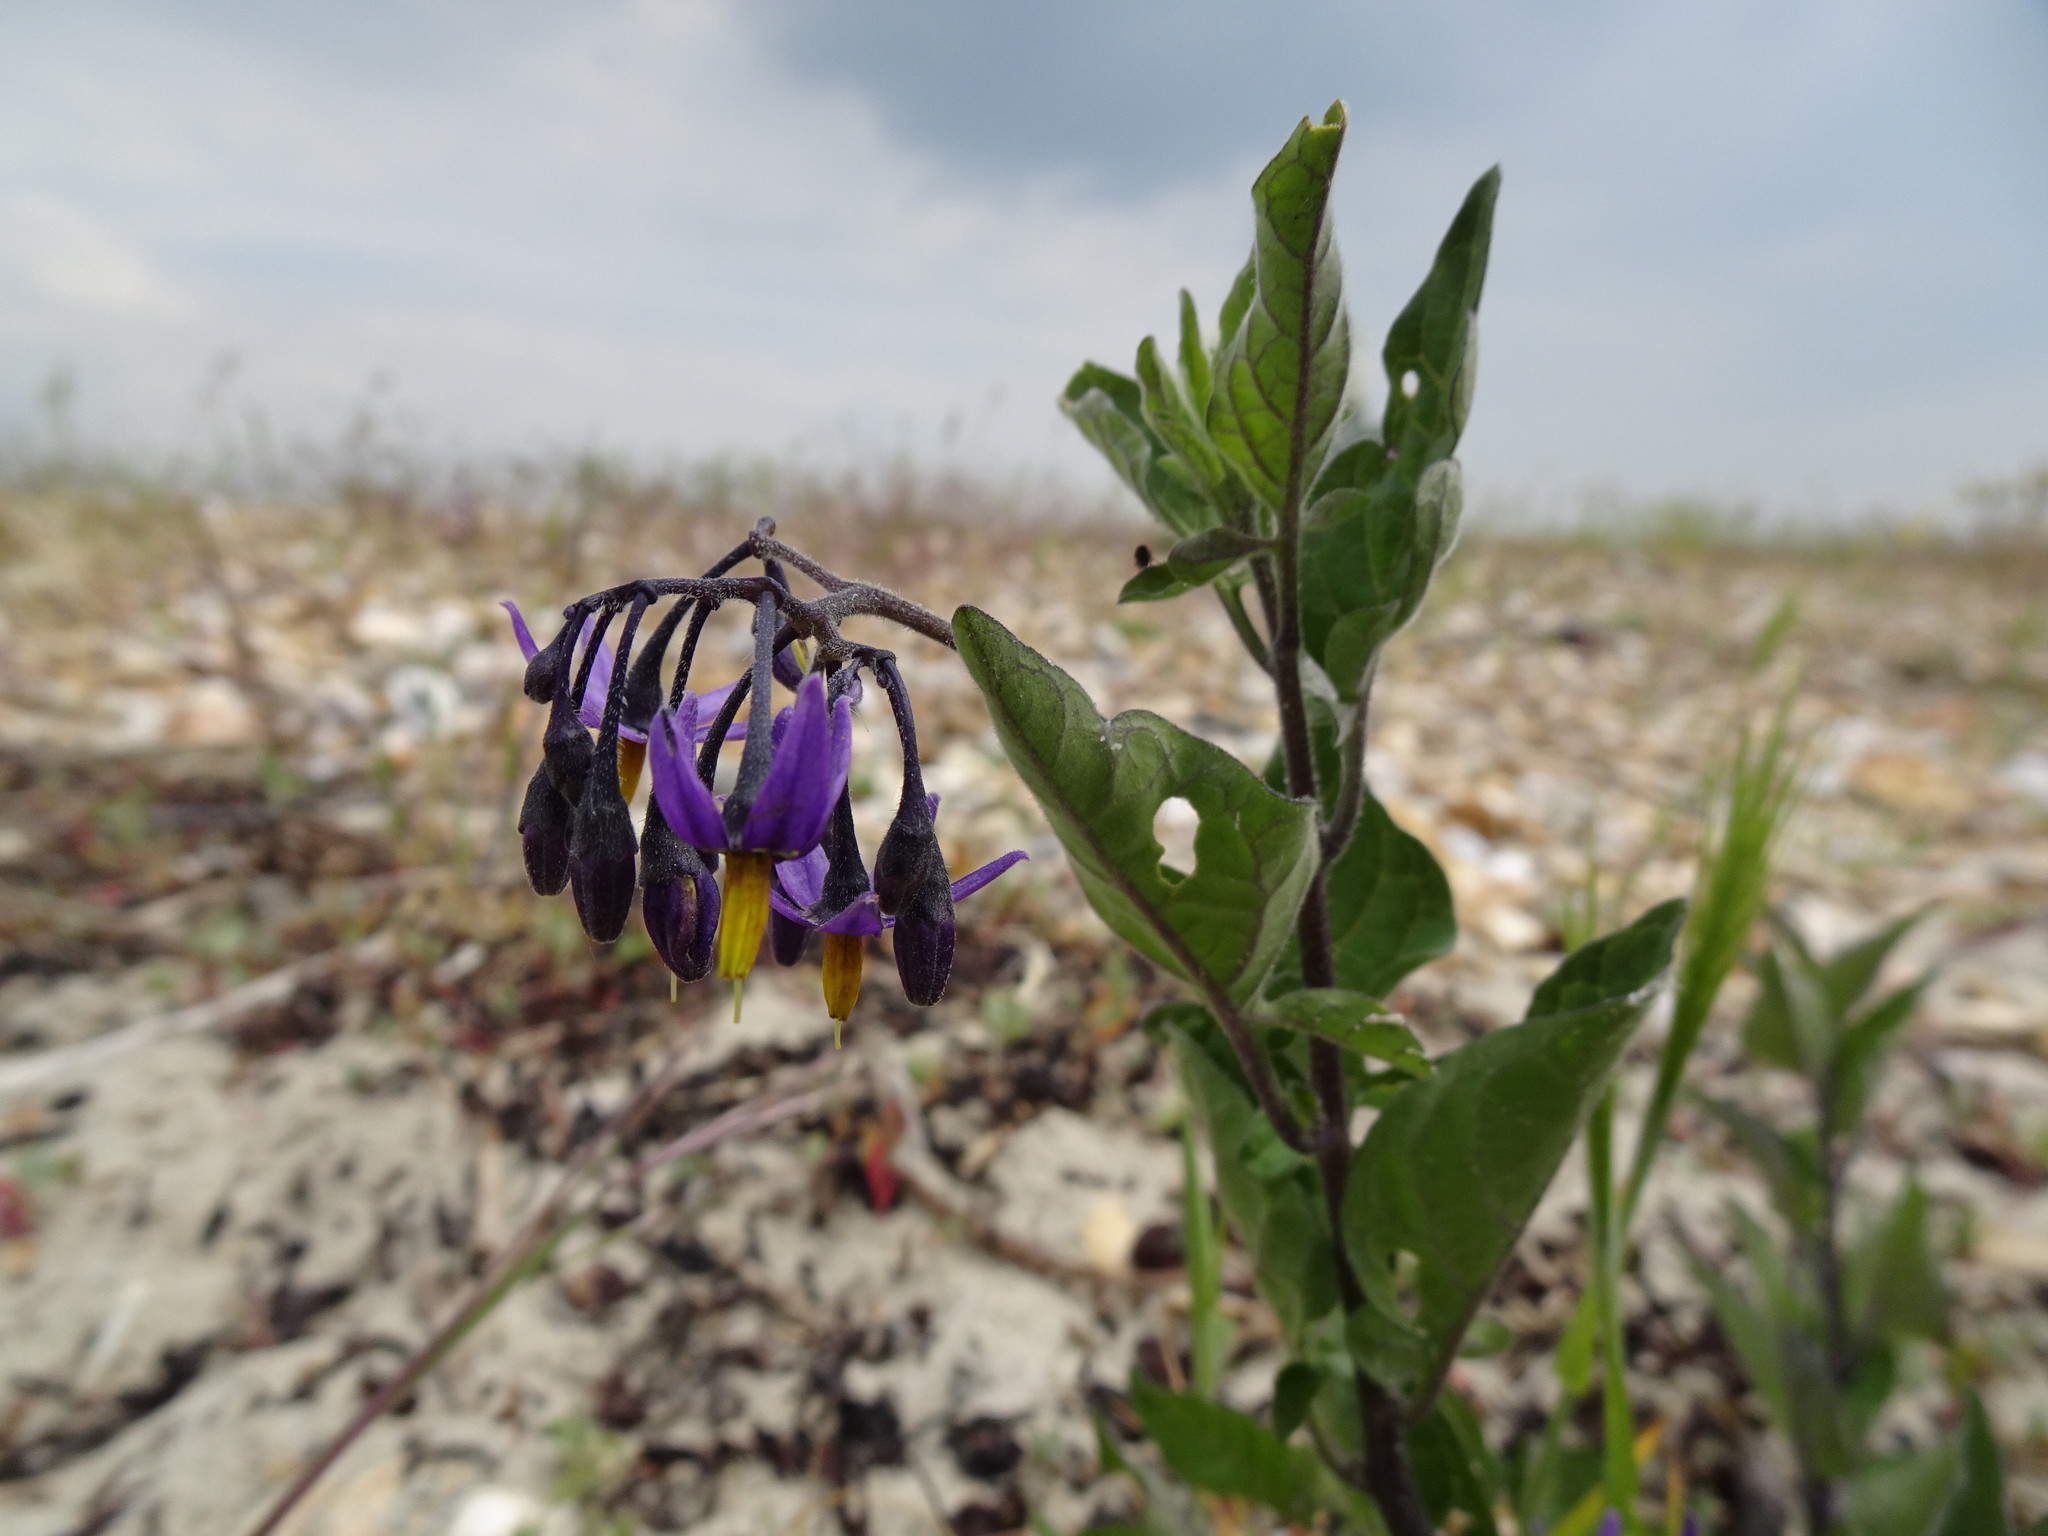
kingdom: Plantae
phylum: Tracheophyta
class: Magnoliopsida
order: Solanales
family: Solanaceae
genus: Solanum
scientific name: Solanum dulcamara
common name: Climbing nightshade
